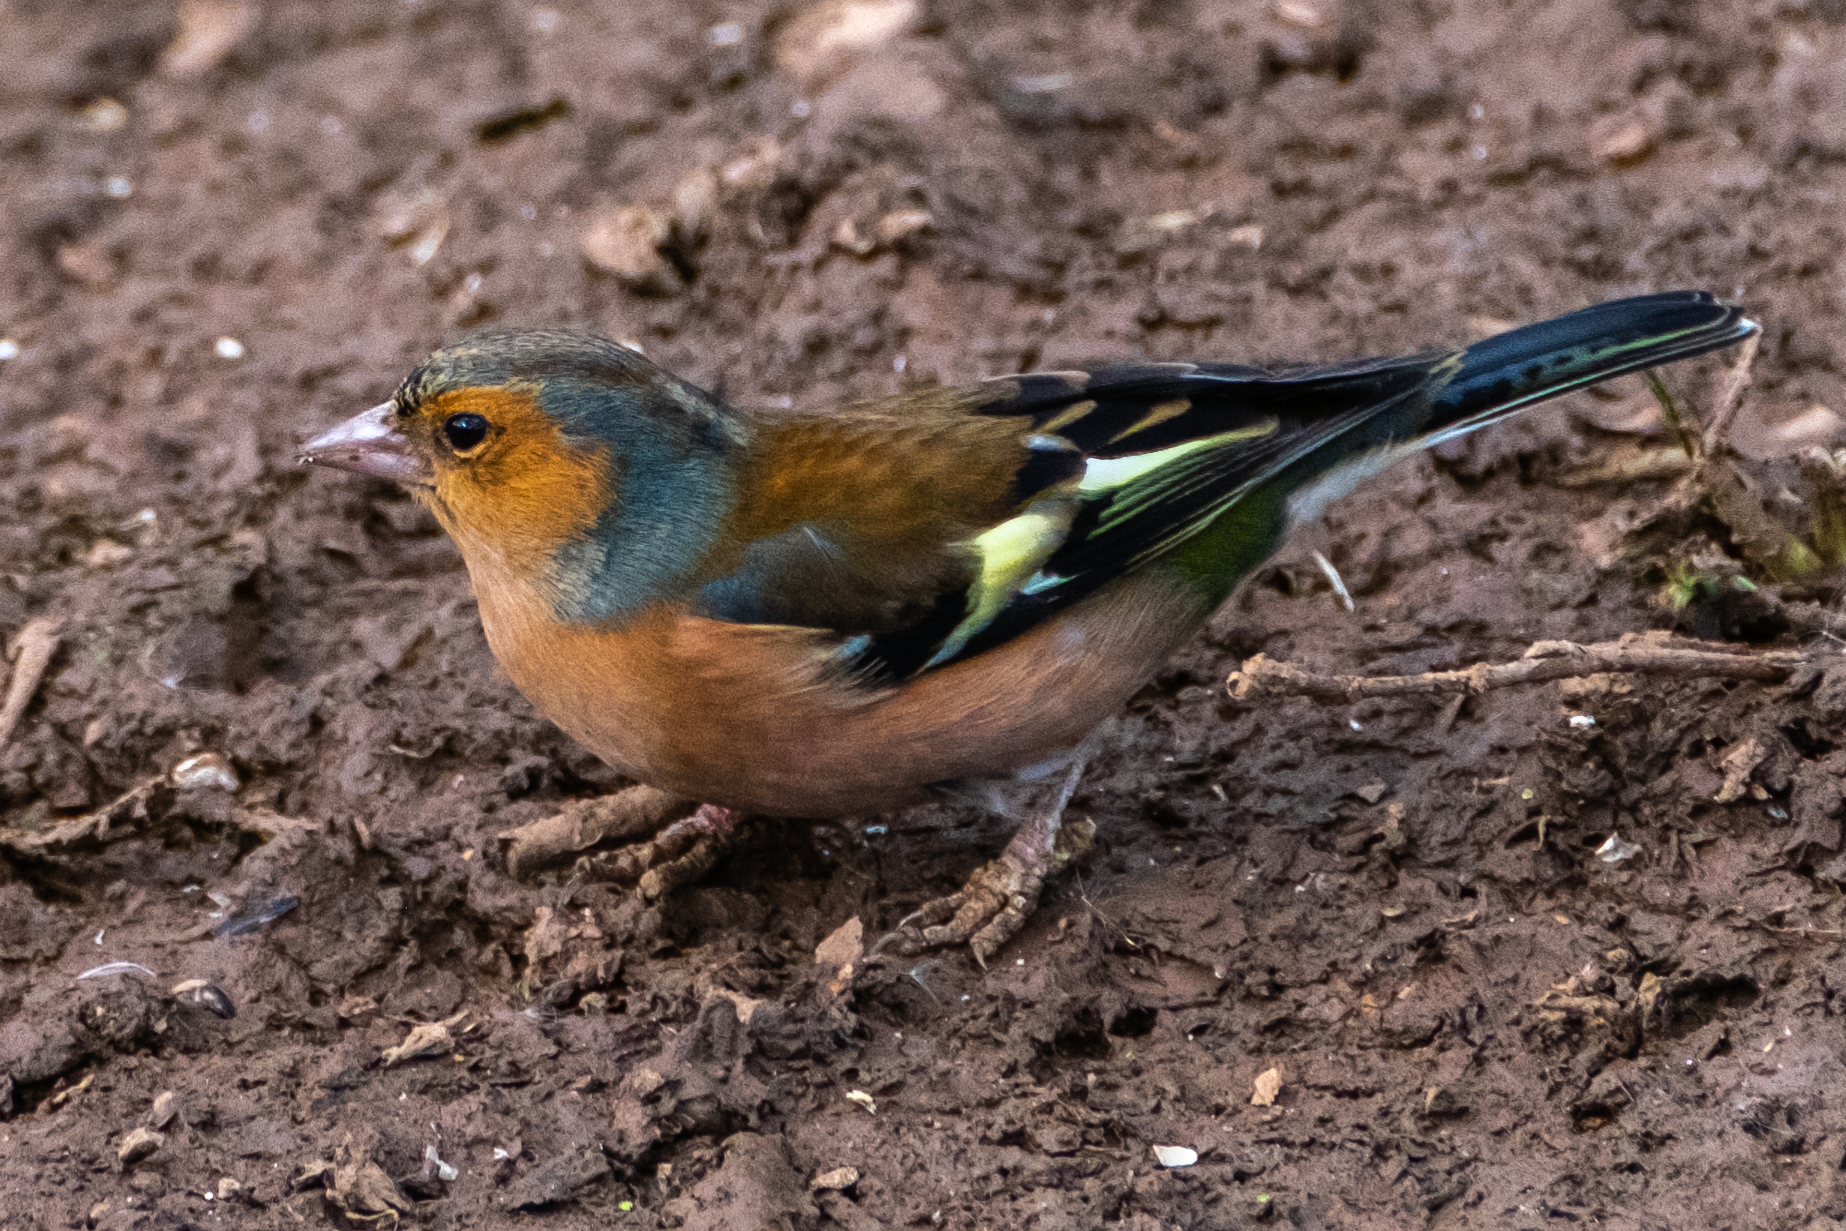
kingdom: Animalia
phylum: Chordata
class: Aves
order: Passeriformes
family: Fringillidae
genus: Fringilla
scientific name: Fringilla coelebs
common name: Common chaffinch
